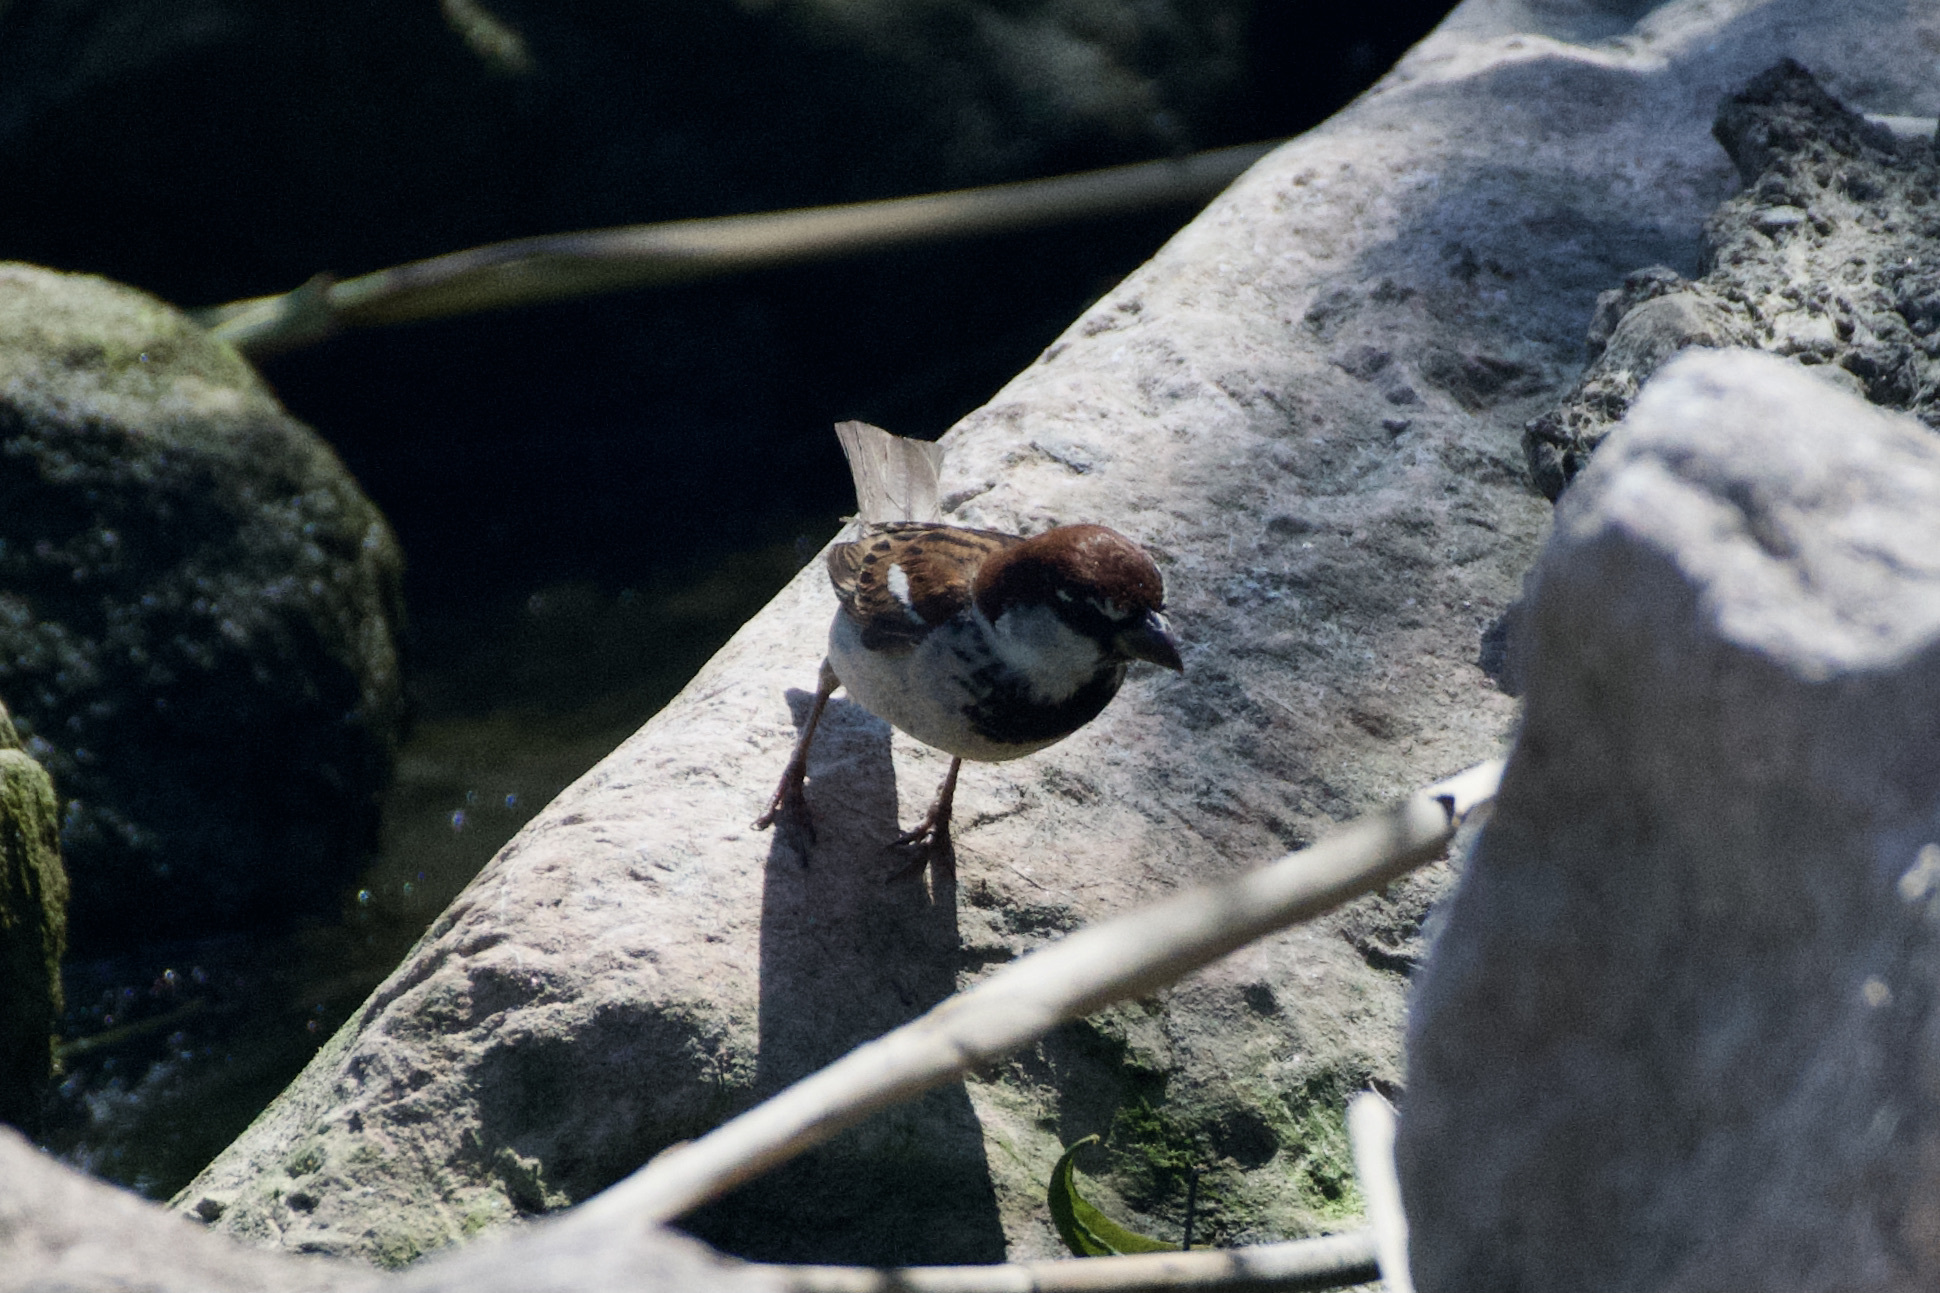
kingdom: Animalia
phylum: Chordata
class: Aves
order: Passeriformes
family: Passeridae
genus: Passer
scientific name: Passer italiae
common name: Italian sparrow
